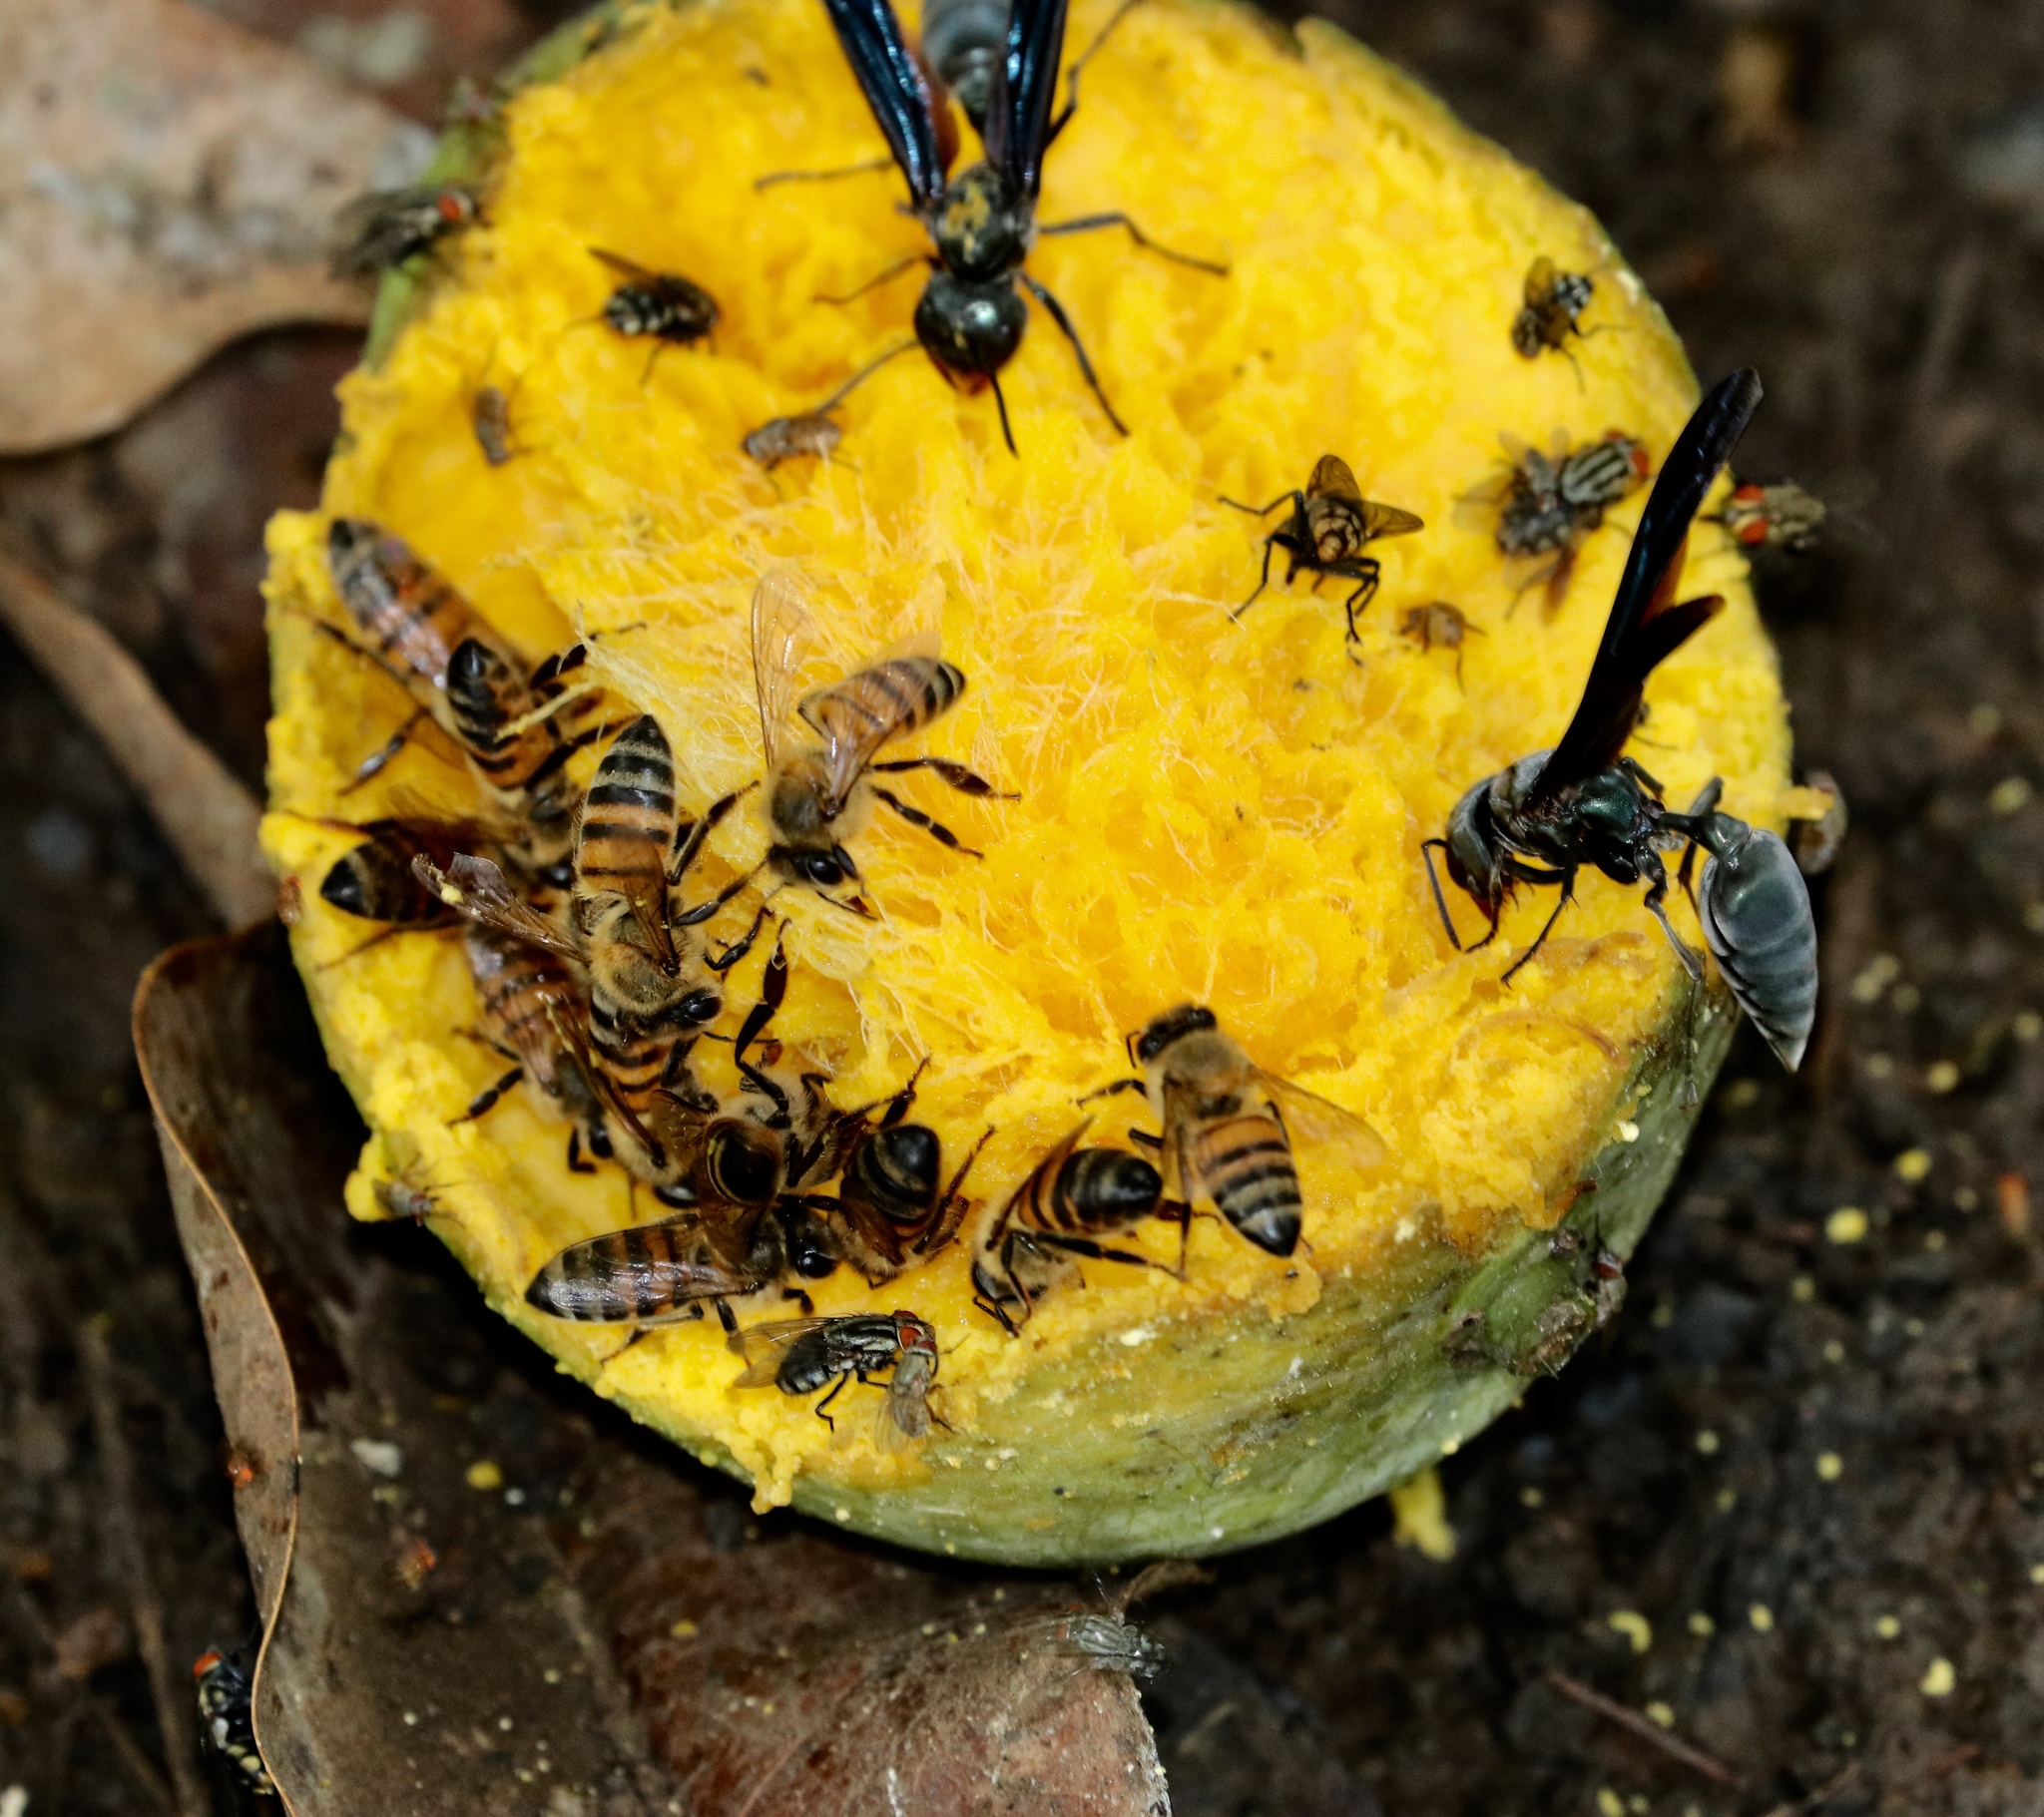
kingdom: Animalia
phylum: Arthropoda
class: Insecta
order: Hymenoptera
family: Apidae
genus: Apis
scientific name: Apis mellifera
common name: Honey bee
